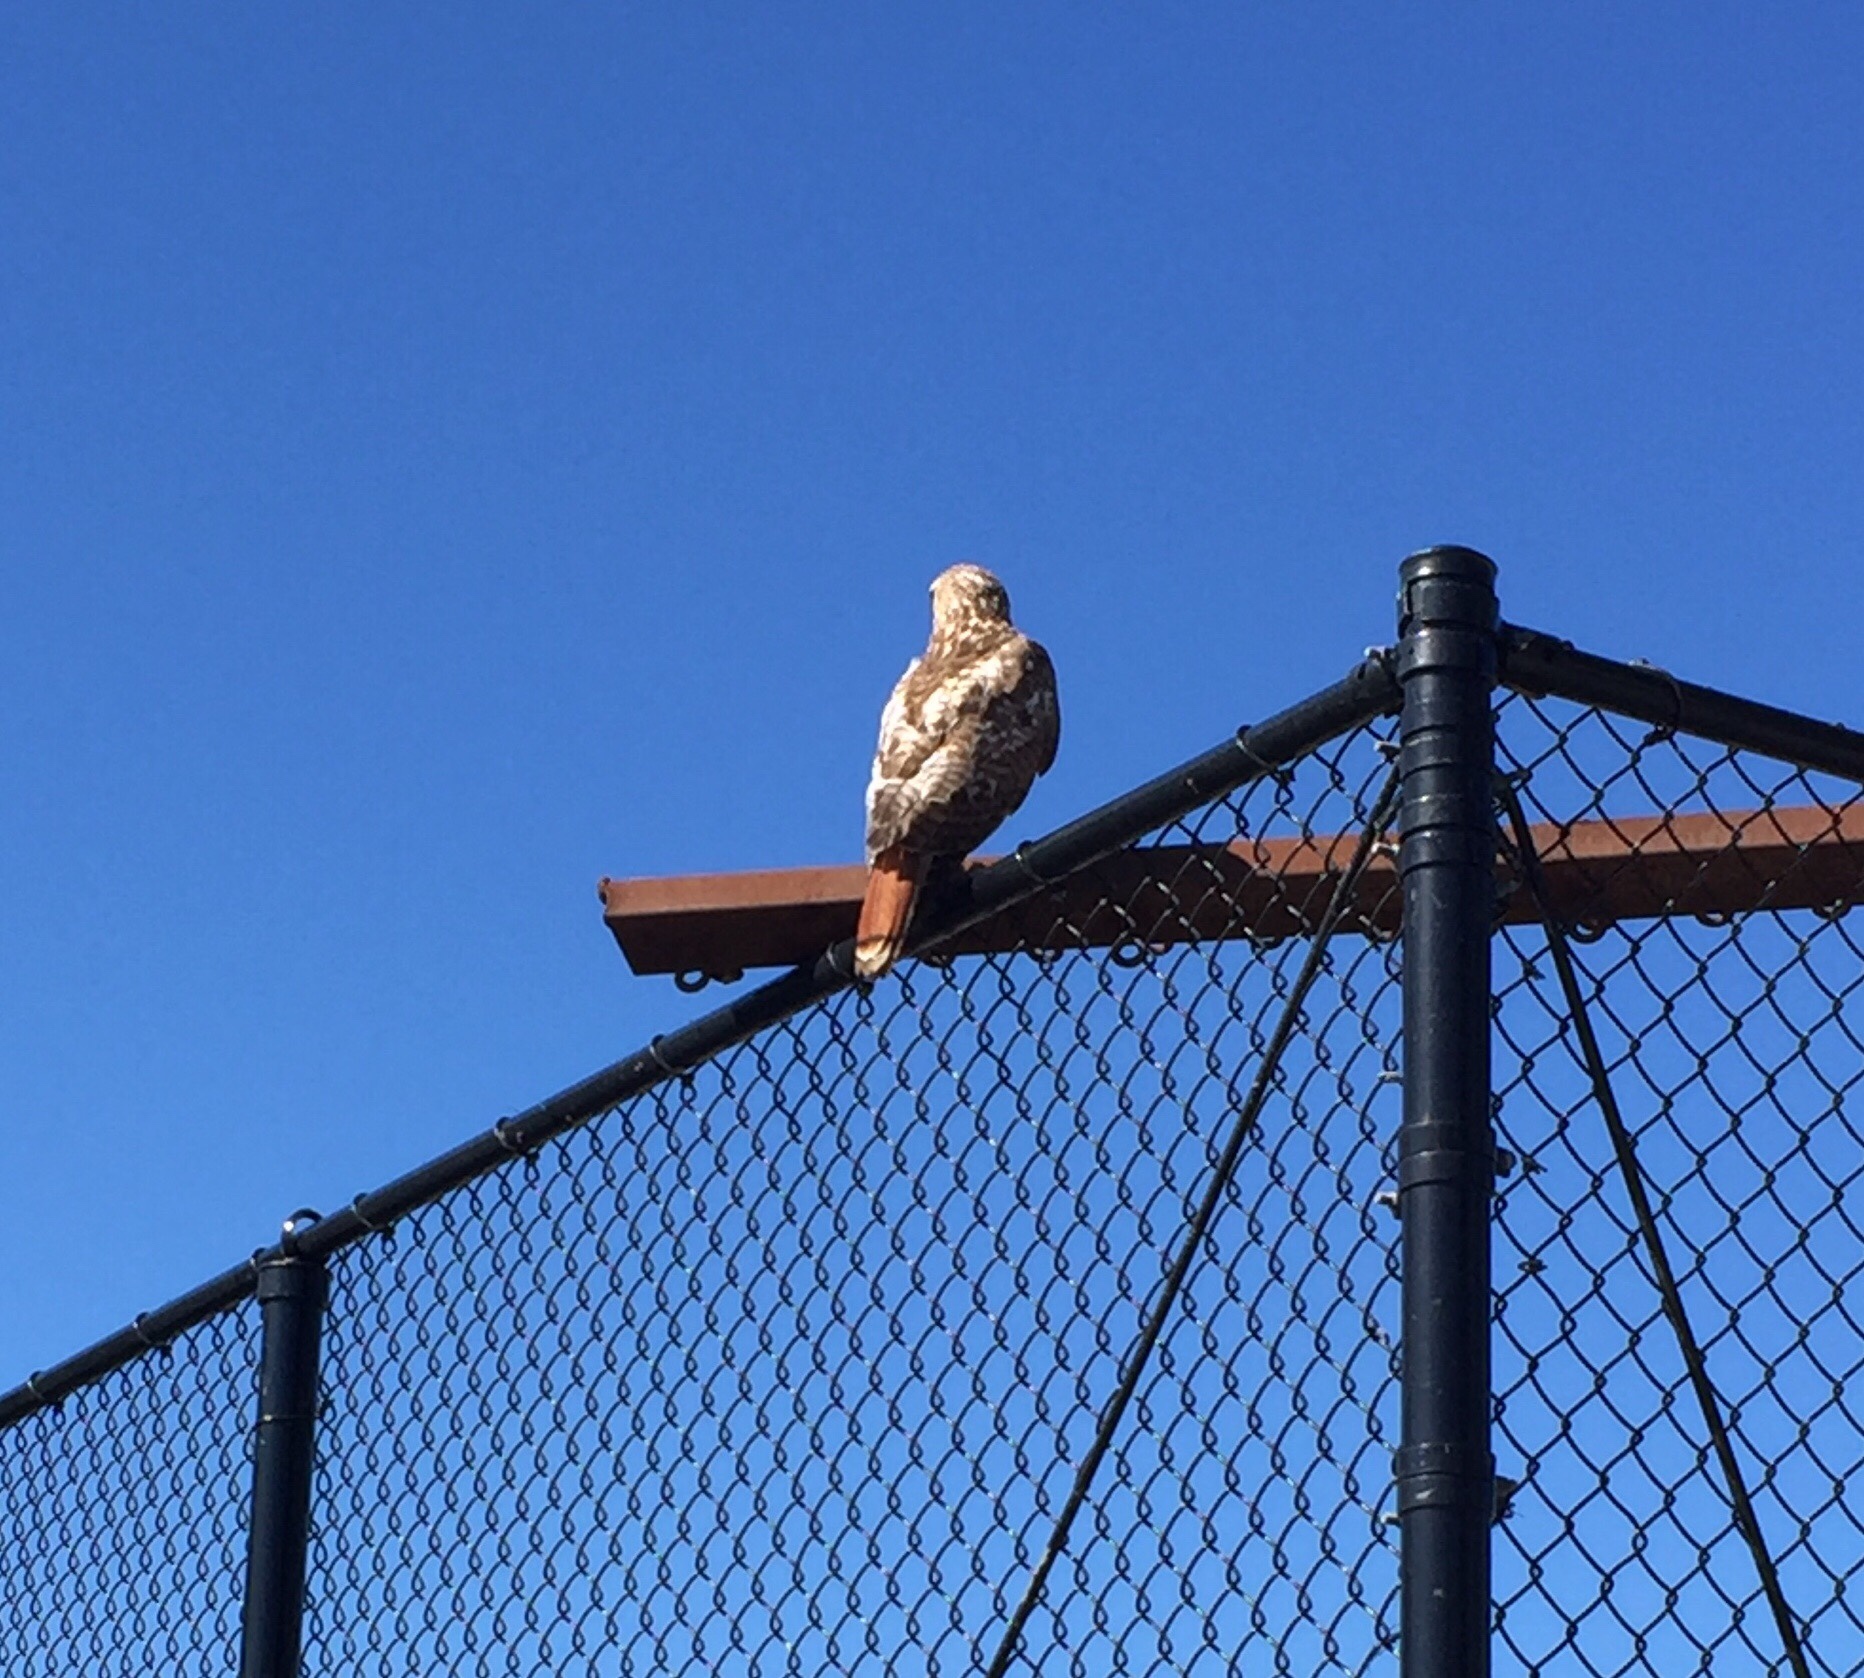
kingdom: Animalia
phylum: Chordata
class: Aves
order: Accipitriformes
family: Accipitridae
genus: Buteo
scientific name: Buteo jamaicensis
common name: Red-tailed hawk
